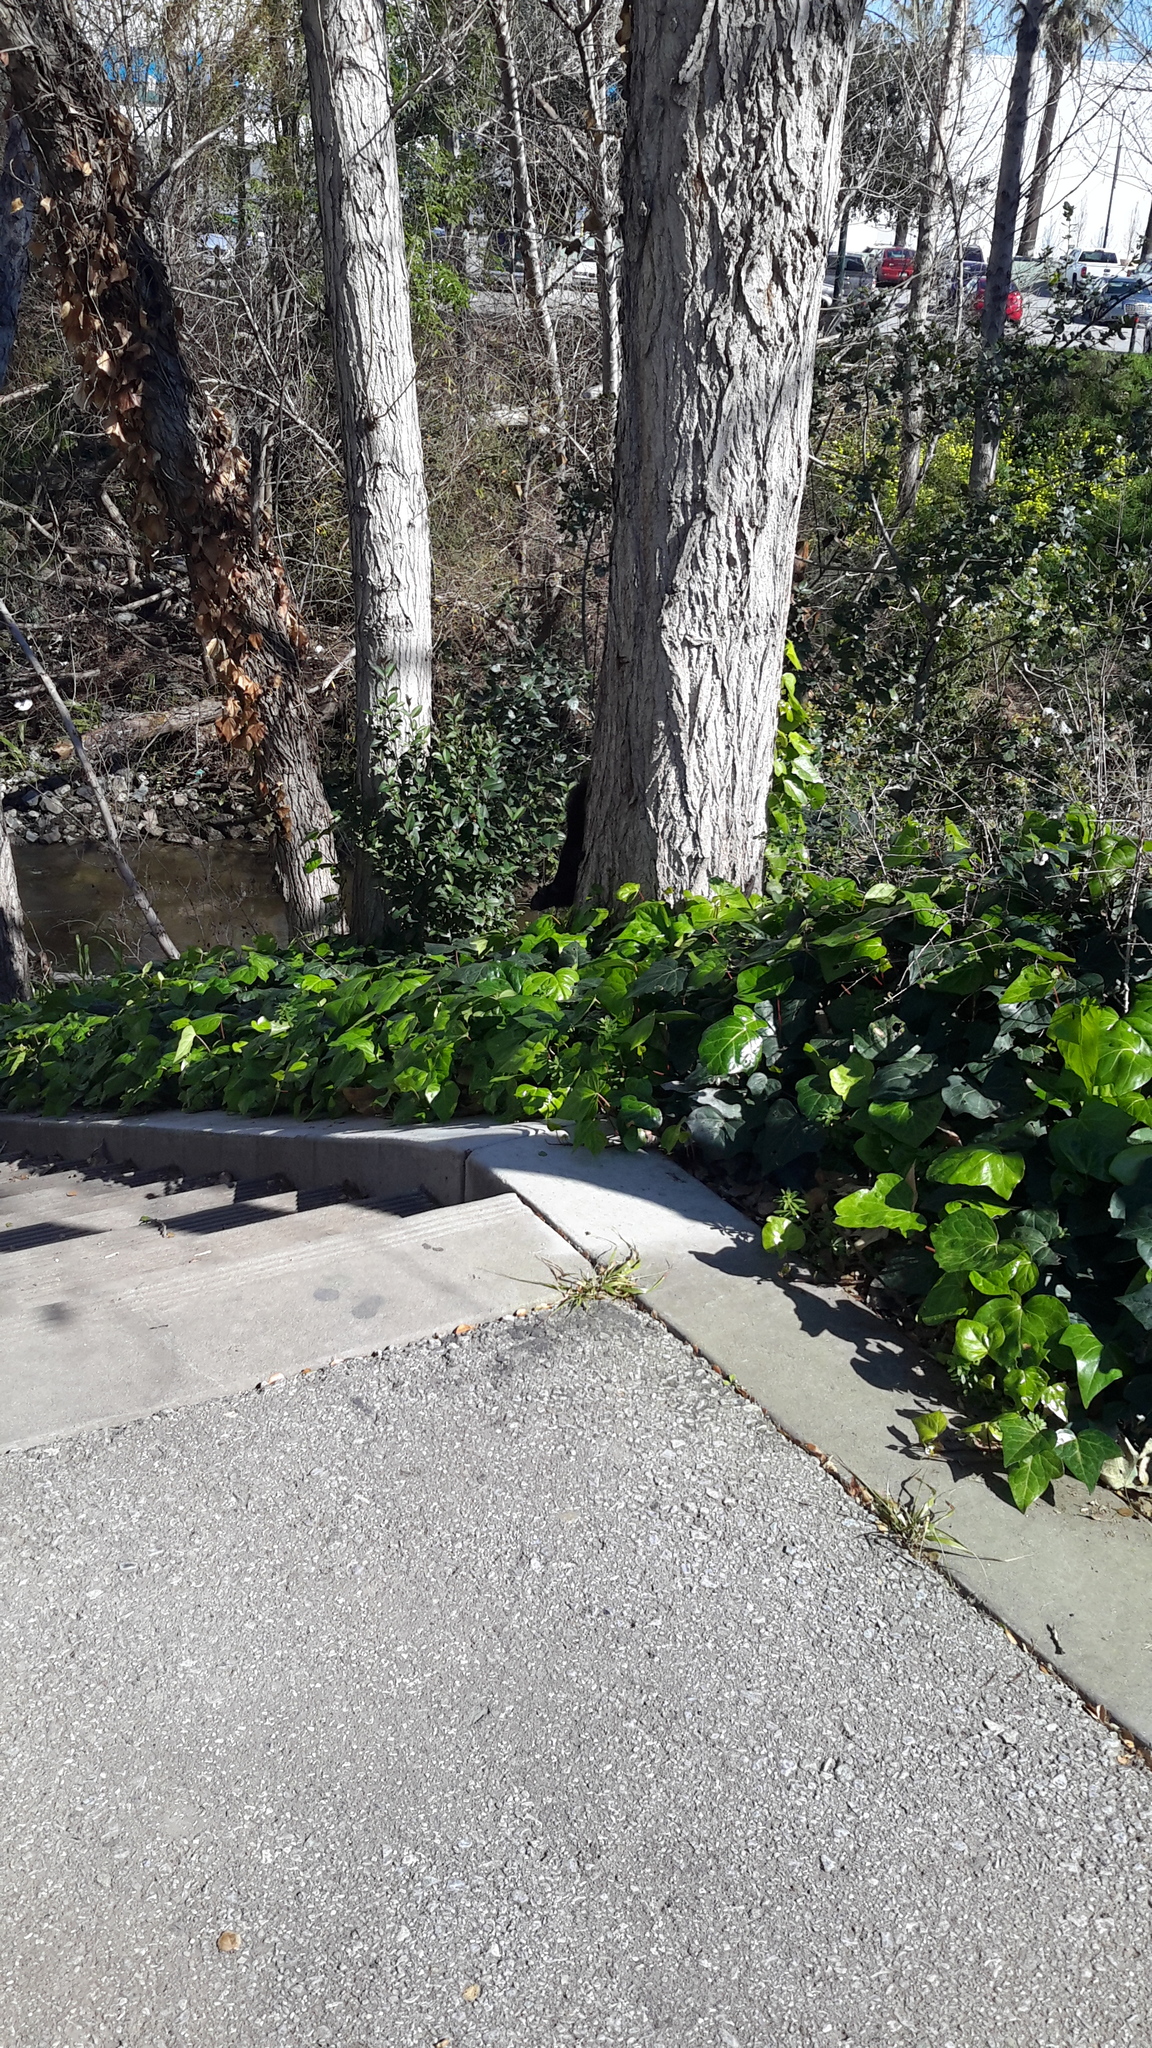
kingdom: Animalia
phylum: Chordata
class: Mammalia
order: Rodentia
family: Sciuridae
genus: Sciurus
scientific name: Sciurus carolinensis
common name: Eastern gray squirrel
